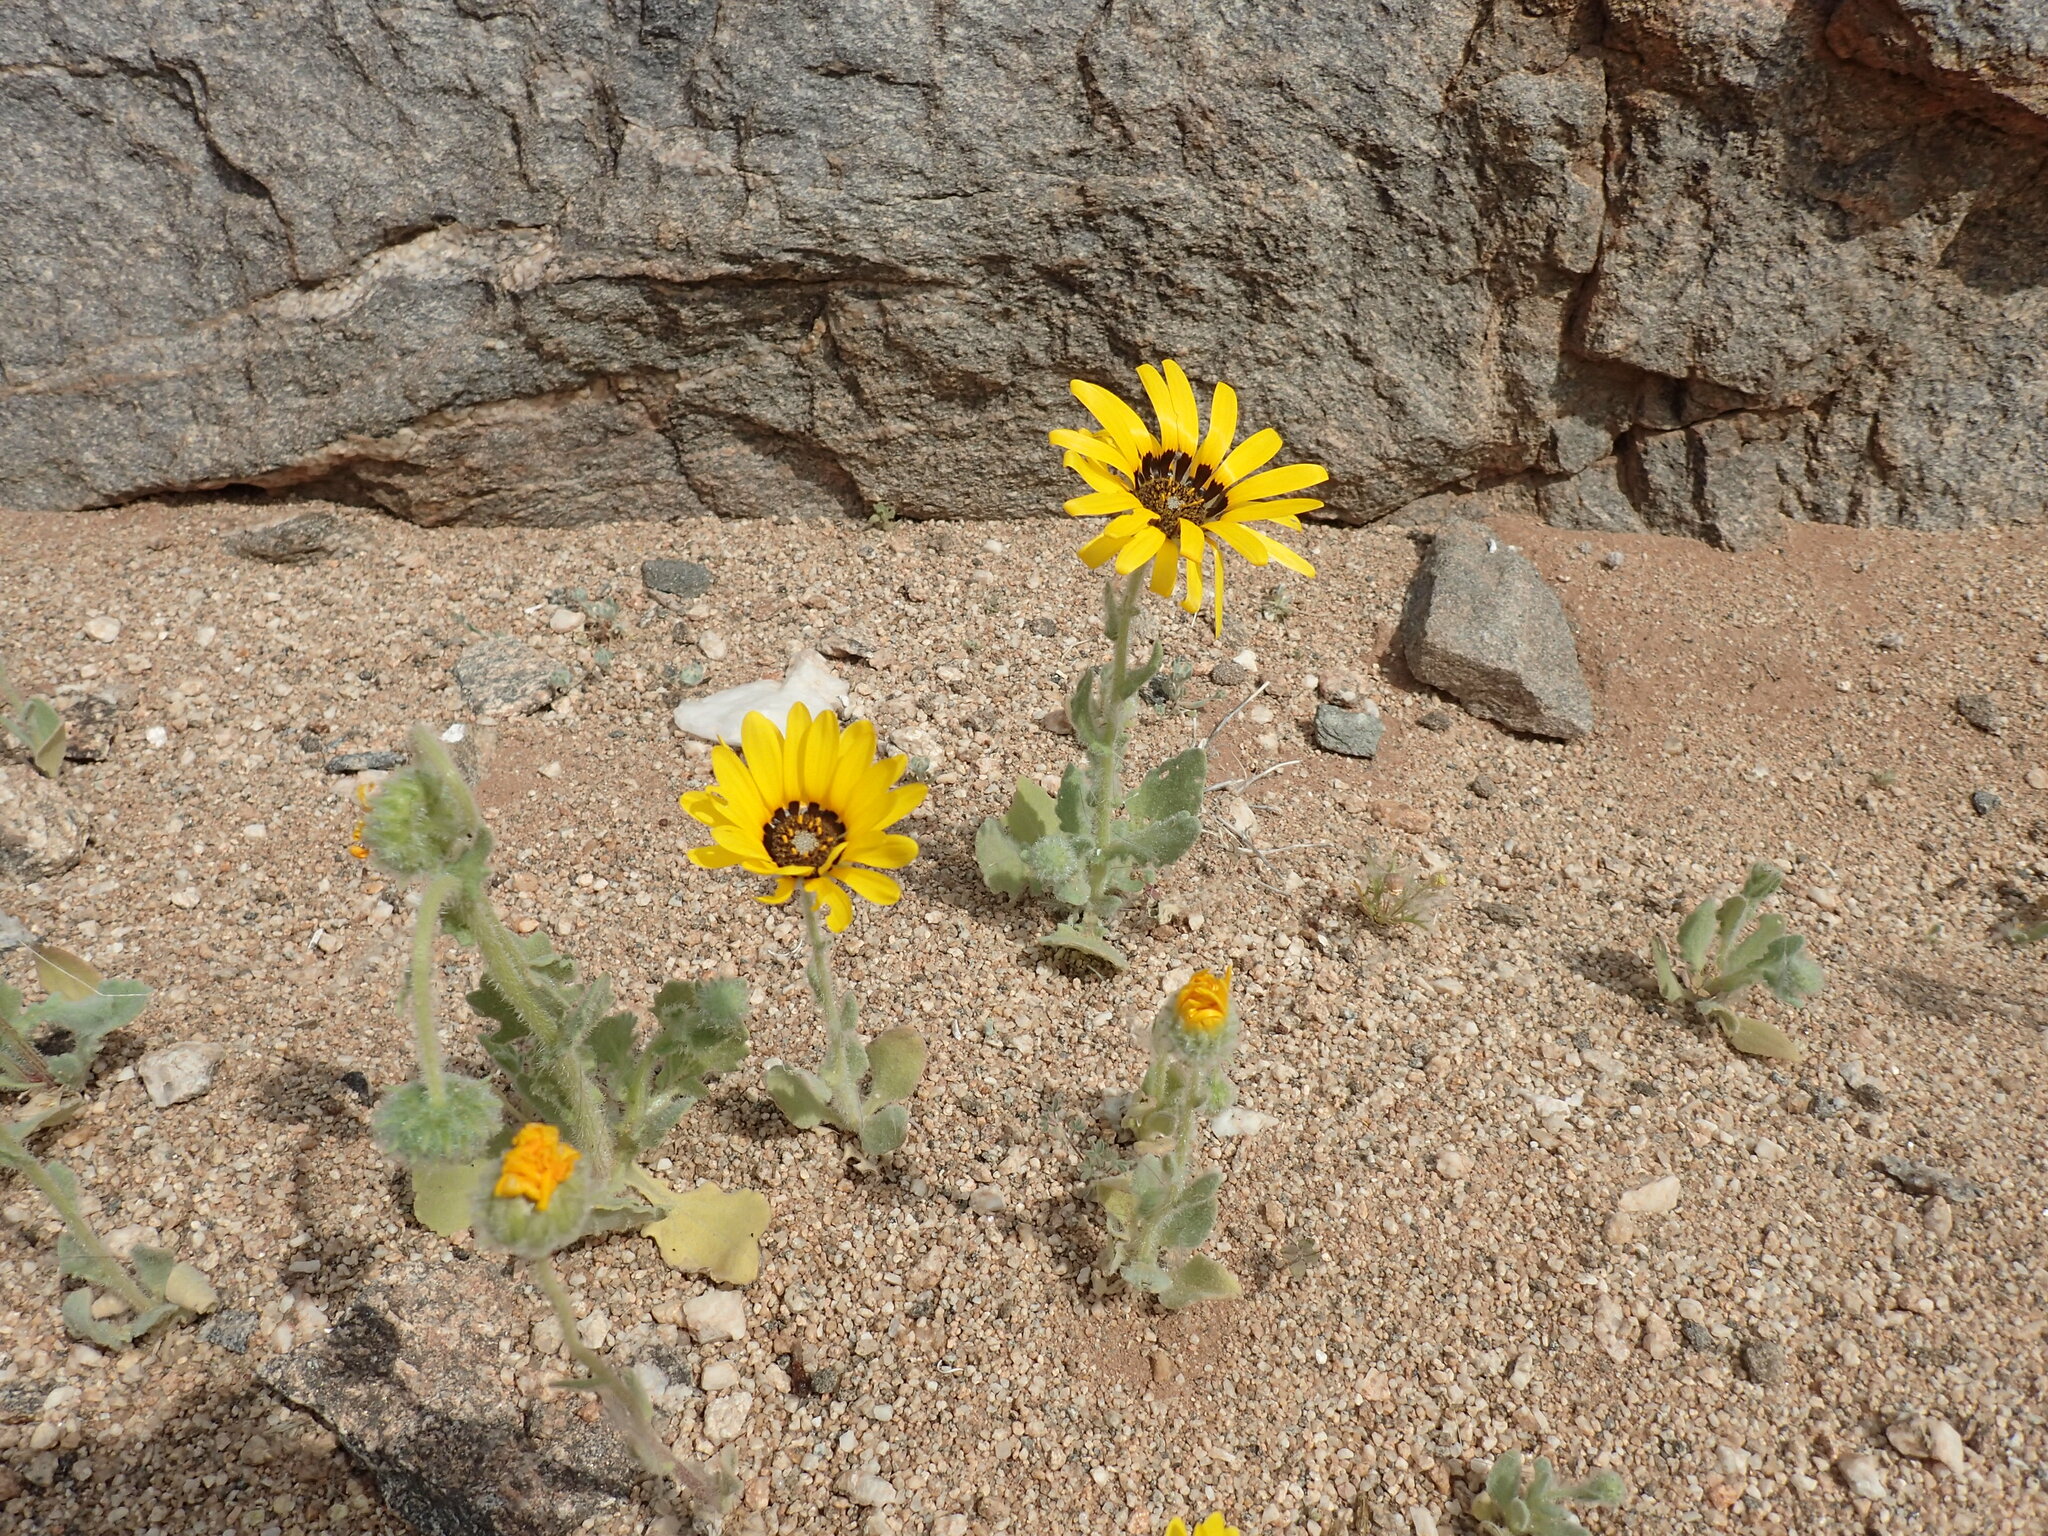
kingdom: Plantae
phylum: Tracheophyta
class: Magnoliopsida
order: Asterales
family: Asteraceae
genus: Arctotis
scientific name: Arctotis namibiensis
